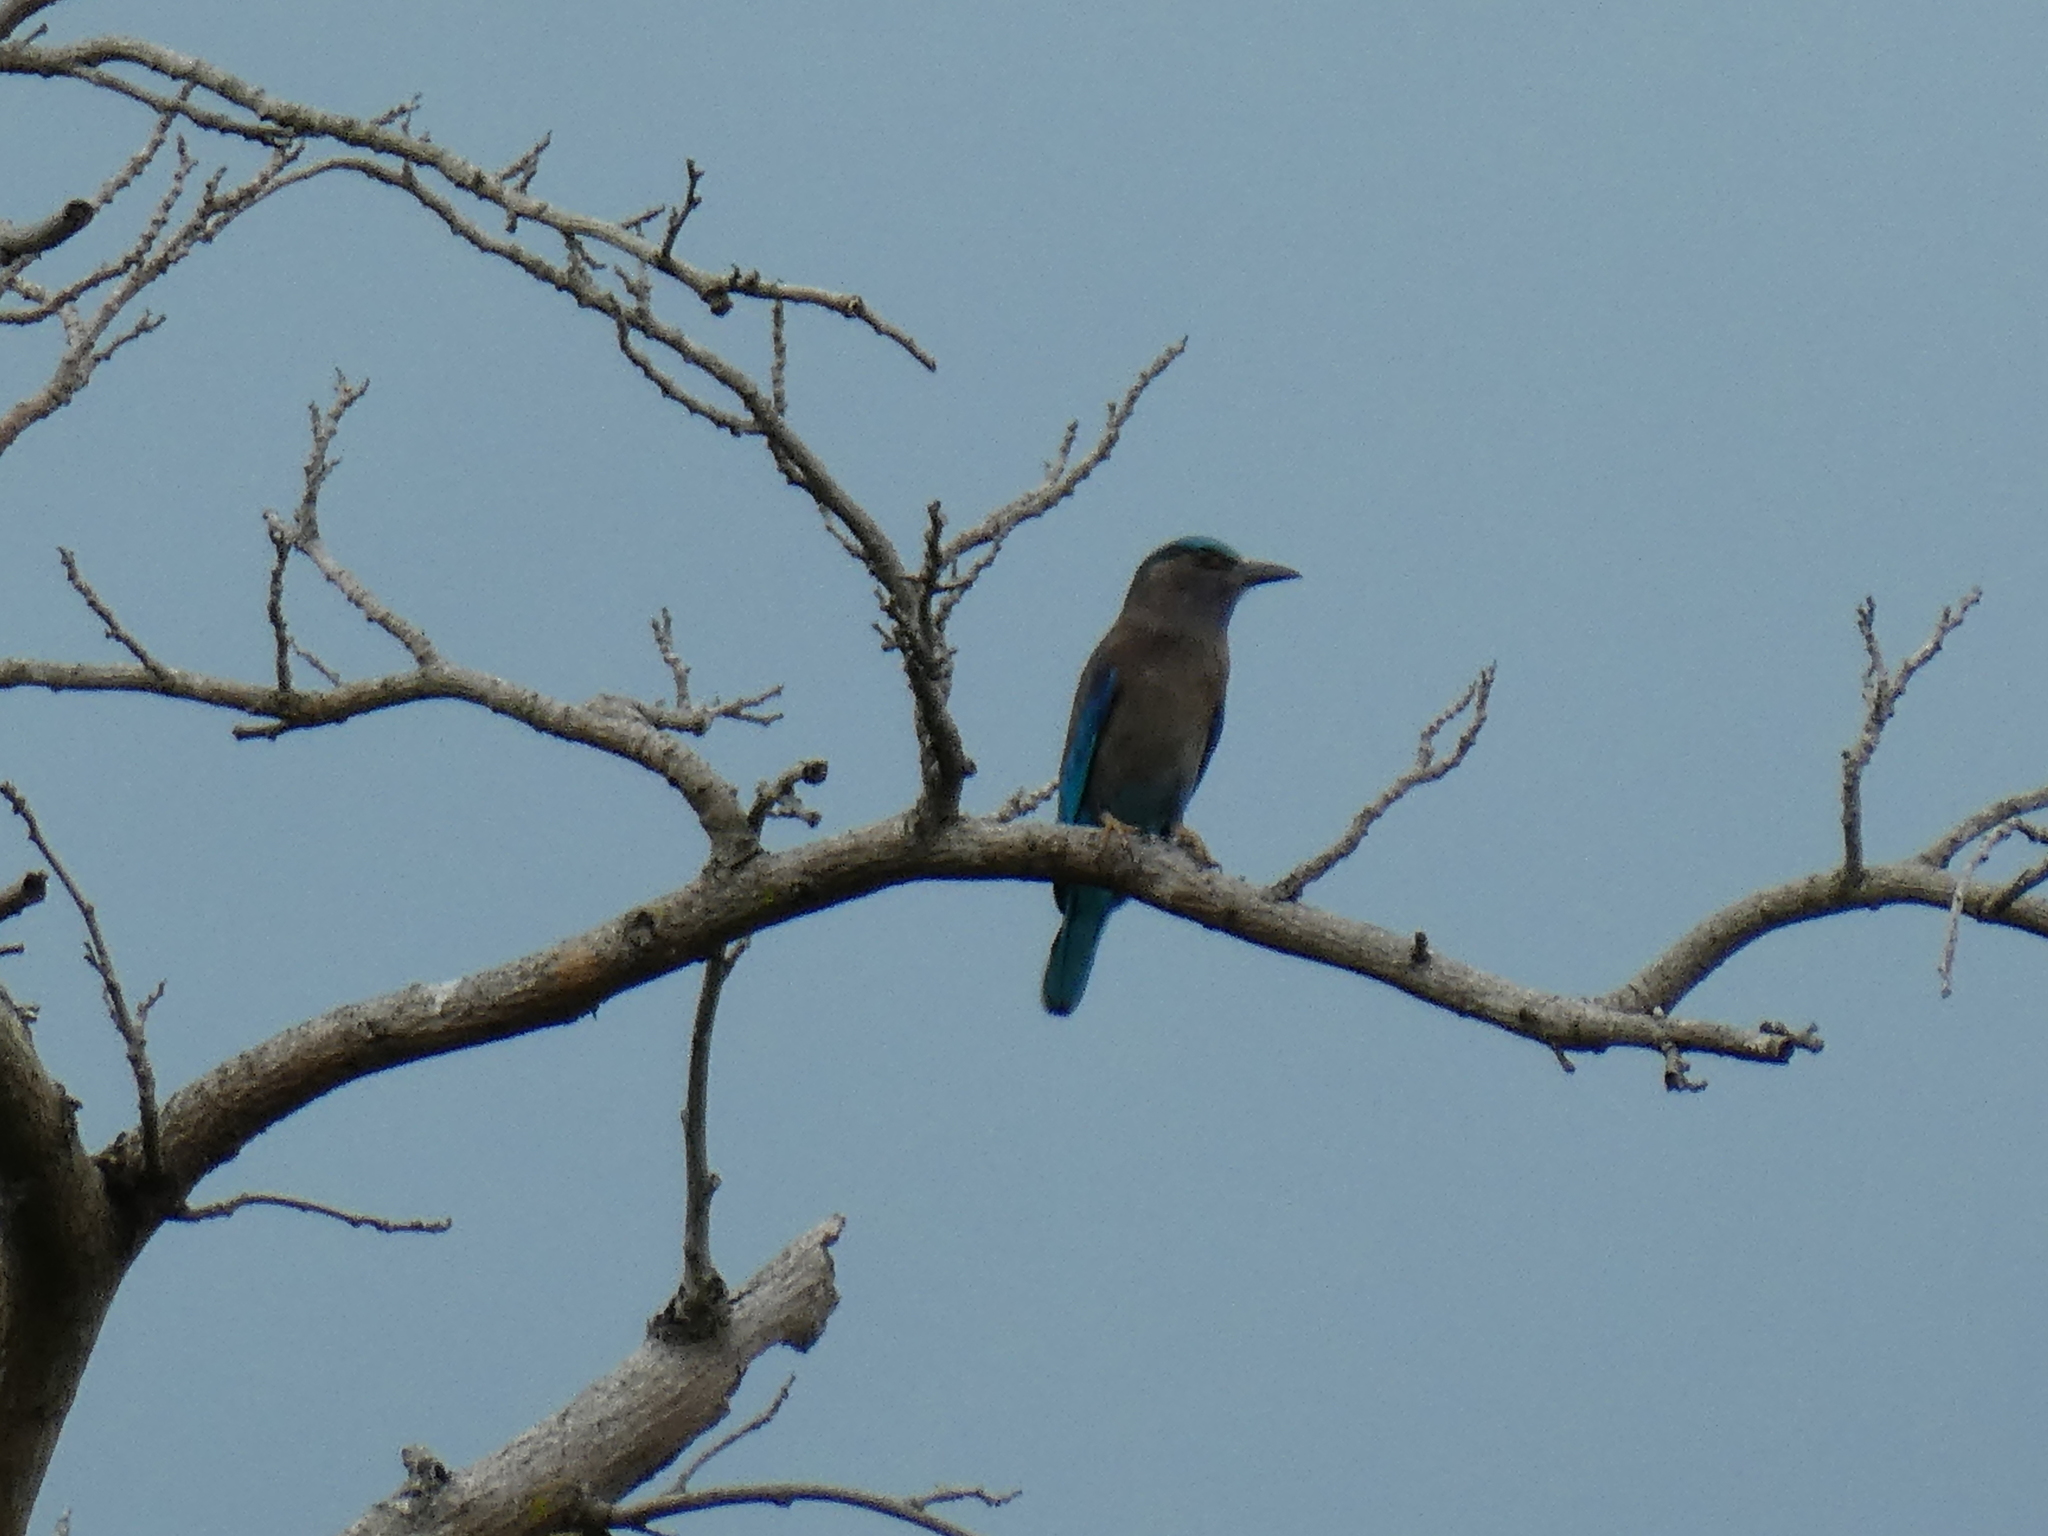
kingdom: Animalia
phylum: Chordata
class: Aves
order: Coraciiformes
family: Coraciidae
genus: Coracias
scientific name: Coracias affinis
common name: Indochinese roller
